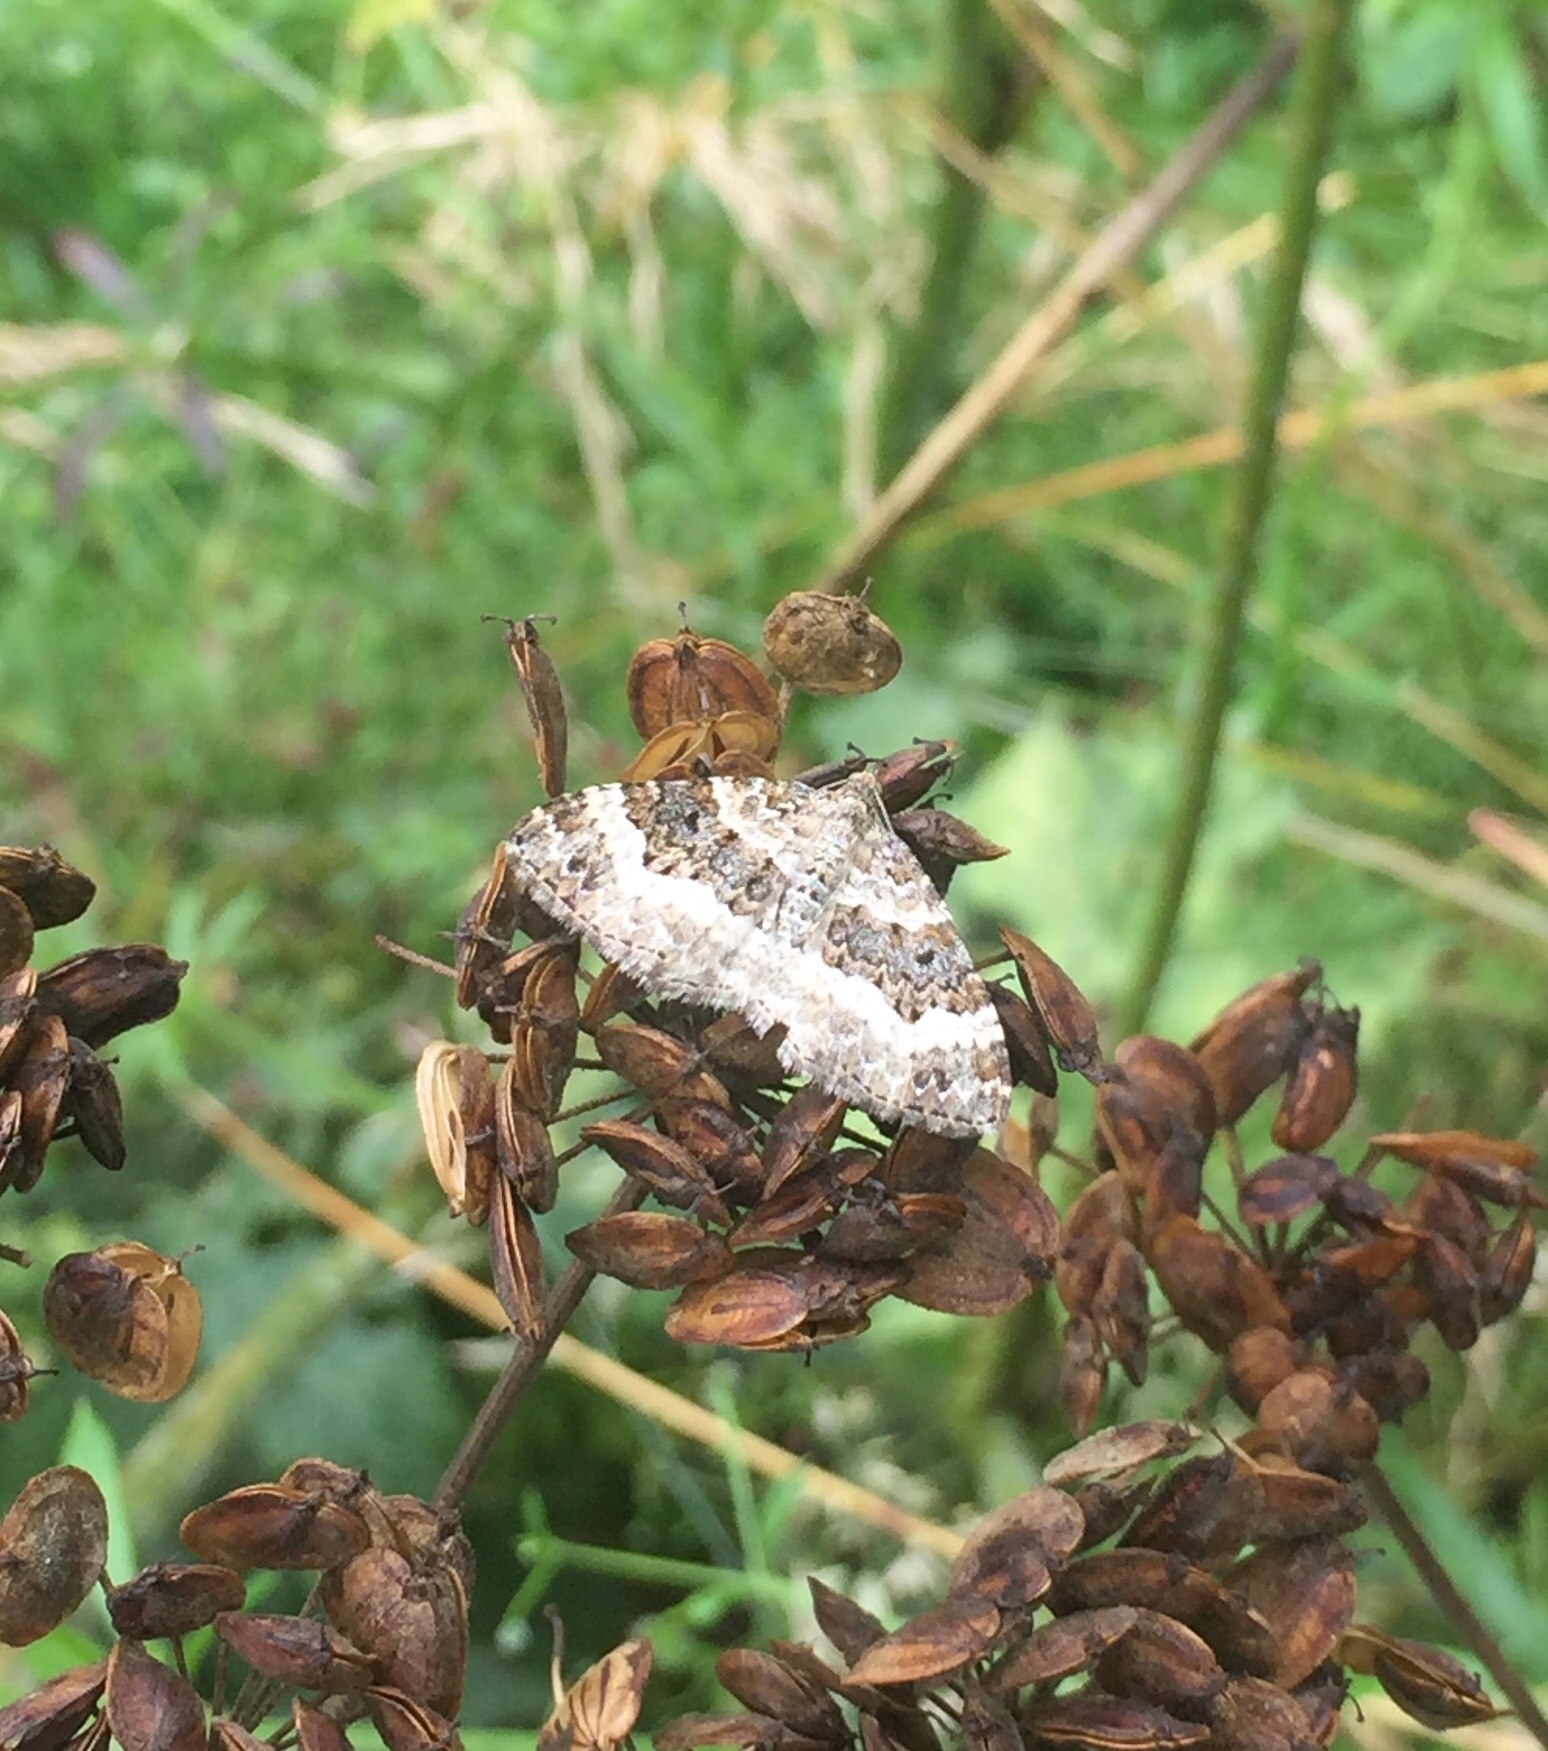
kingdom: Animalia
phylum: Arthropoda
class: Insecta
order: Lepidoptera
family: Geometridae
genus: Epirrhoe
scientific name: Epirrhoe alternata
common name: Common carpet
